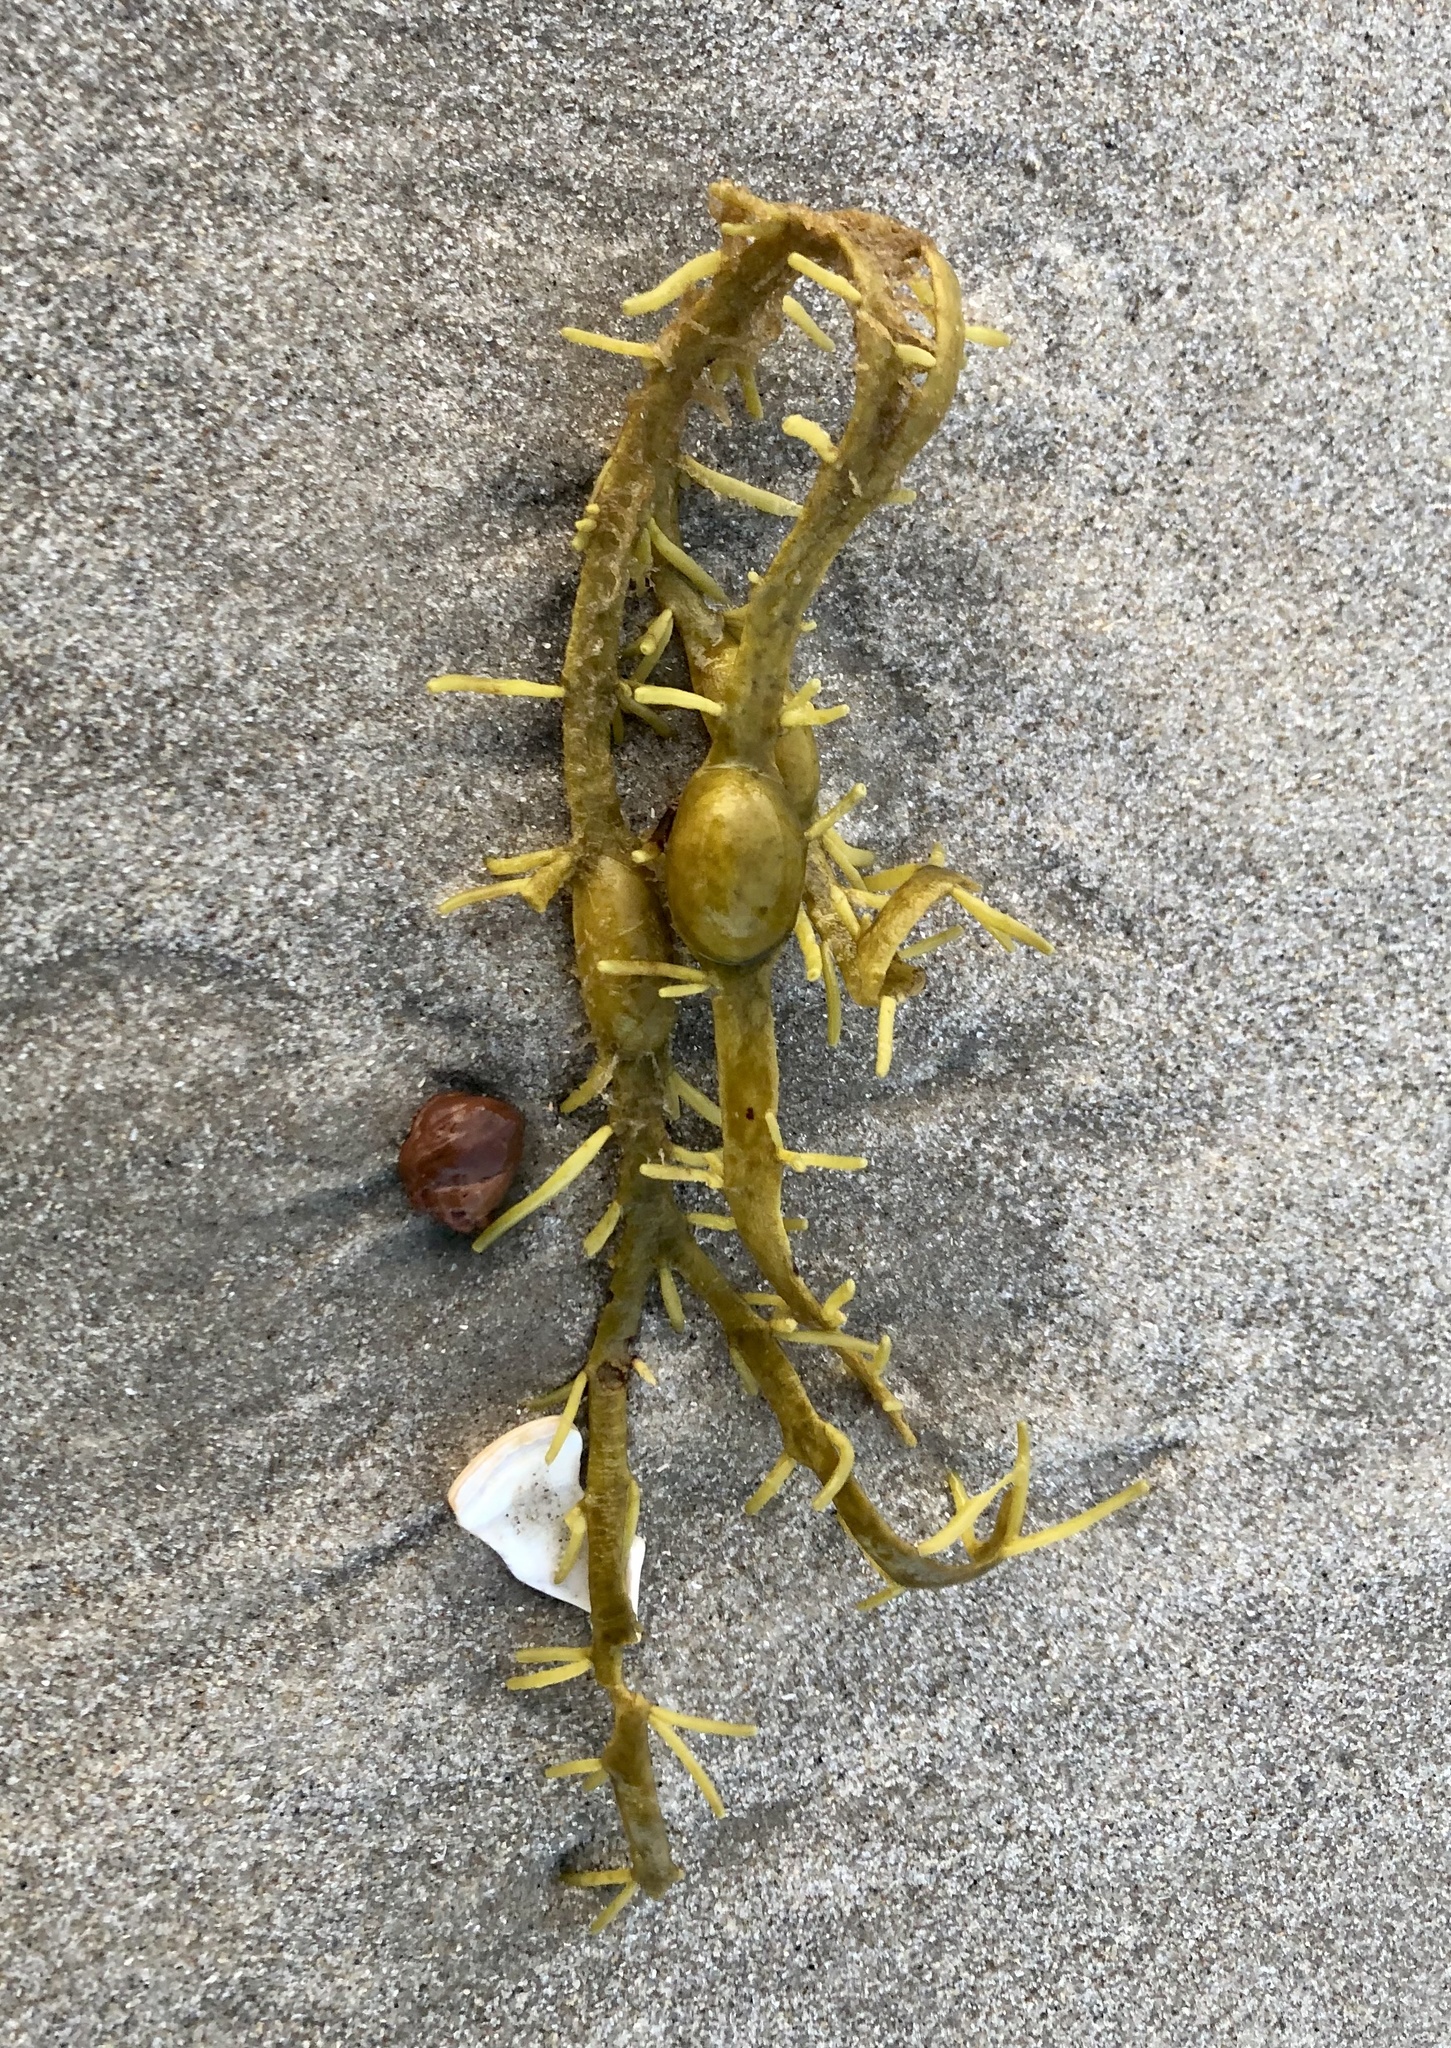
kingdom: Chromista
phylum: Ochrophyta
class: Phaeophyceae
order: Fucales
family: Fucaceae
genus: Ascophyllum
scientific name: Ascophyllum nodosum
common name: Knotted wrack
